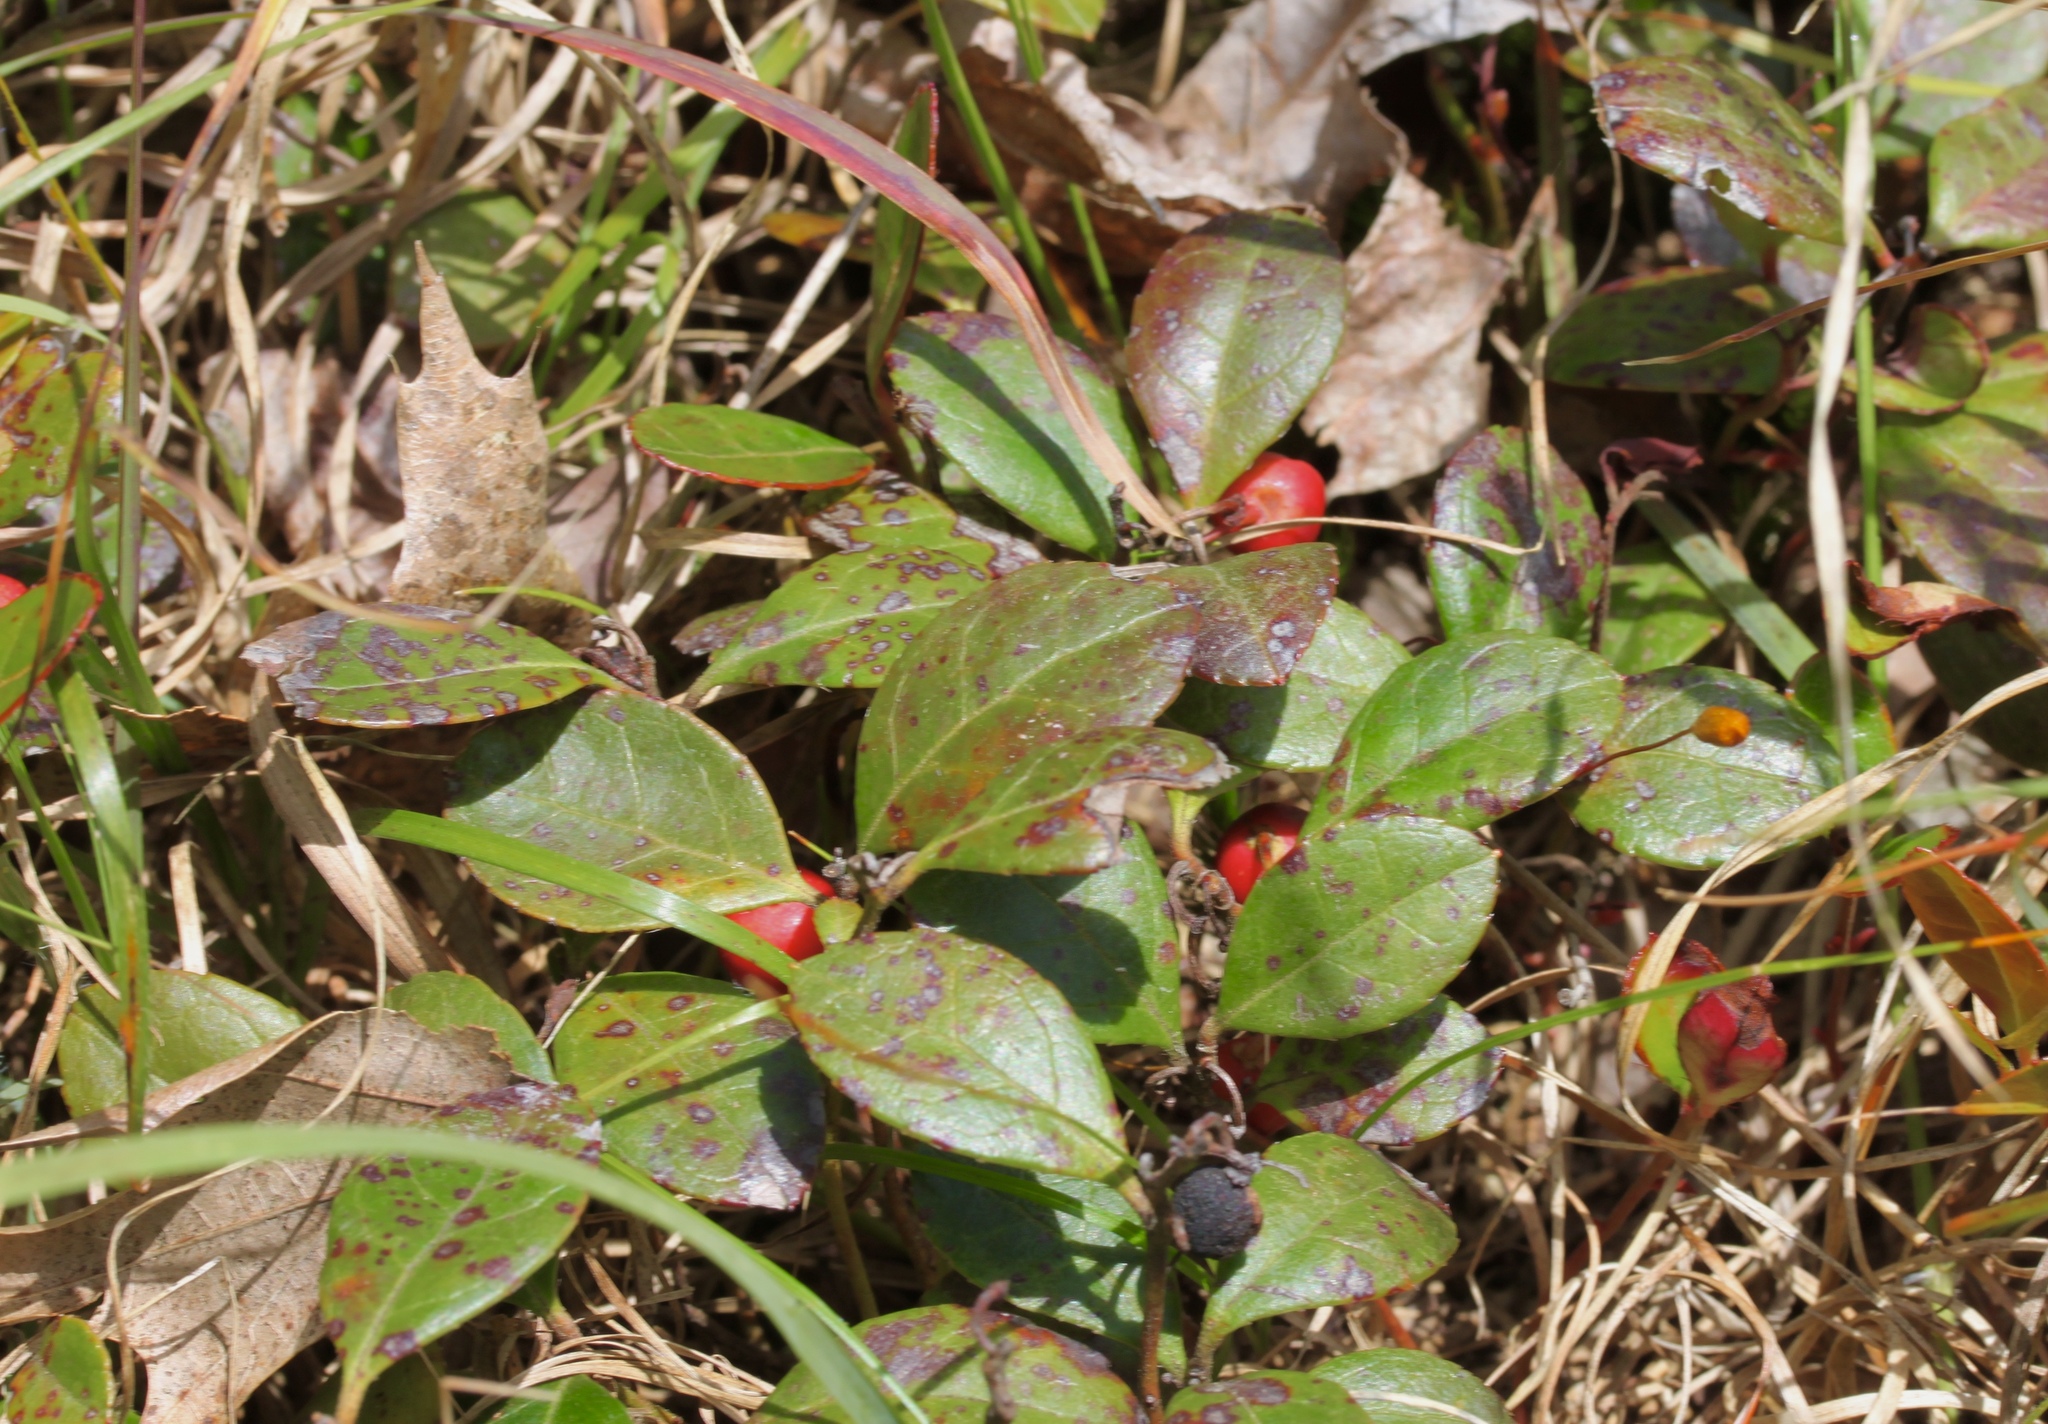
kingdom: Plantae
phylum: Tracheophyta
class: Magnoliopsida
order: Ericales
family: Ericaceae
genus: Gaultheria
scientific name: Gaultheria procumbens
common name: Checkerberry
